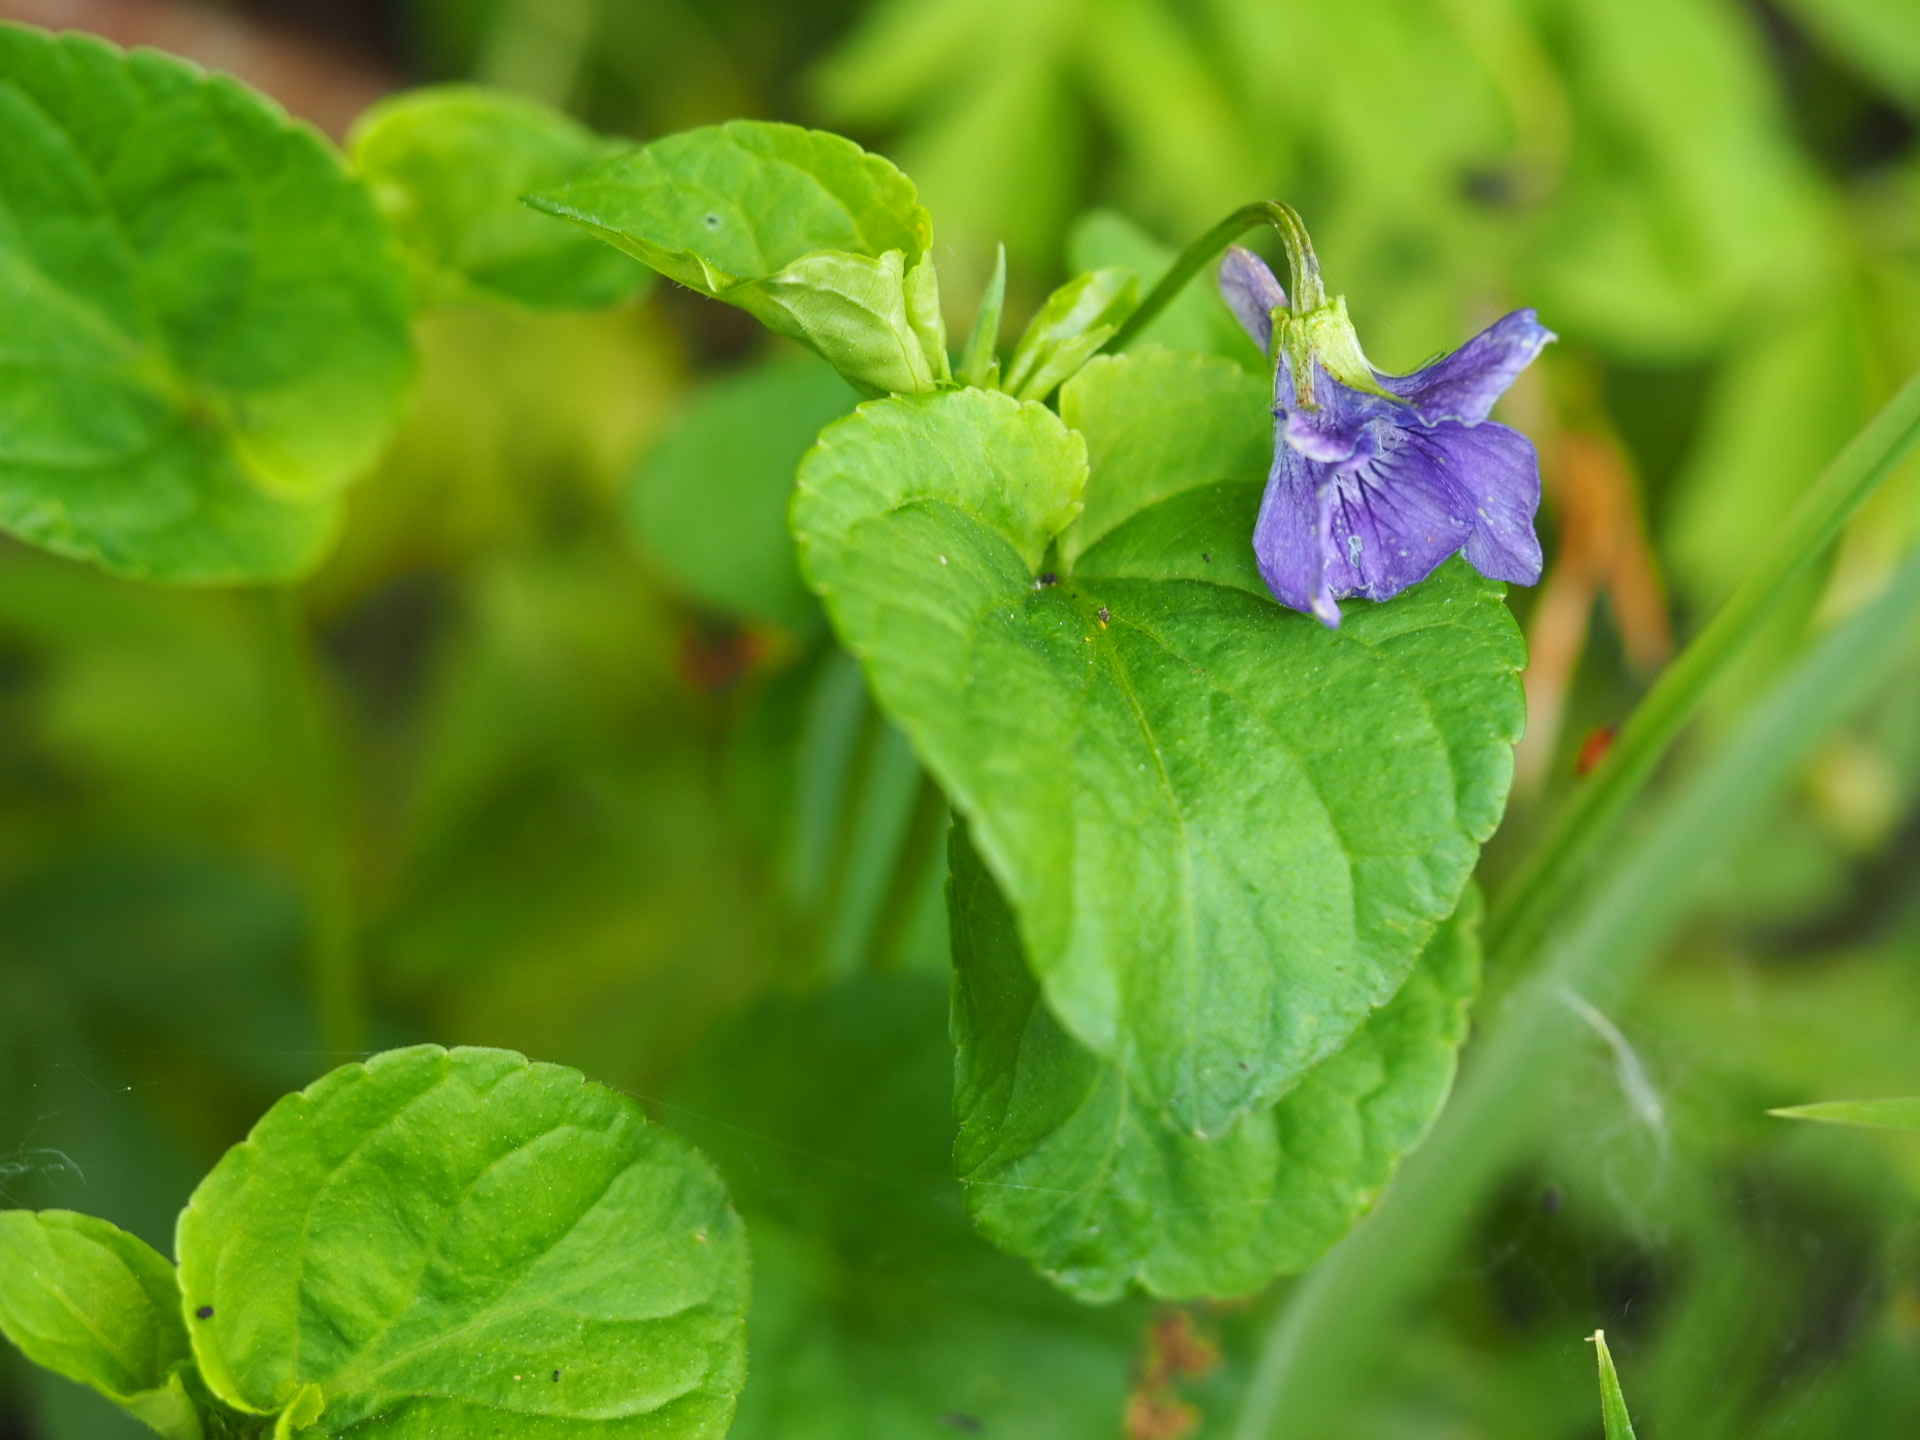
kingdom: Plantae
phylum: Tracheophyta
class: Magnoliopsida
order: Malpighiales
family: Violaceae
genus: Viola
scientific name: Viola bavarica
